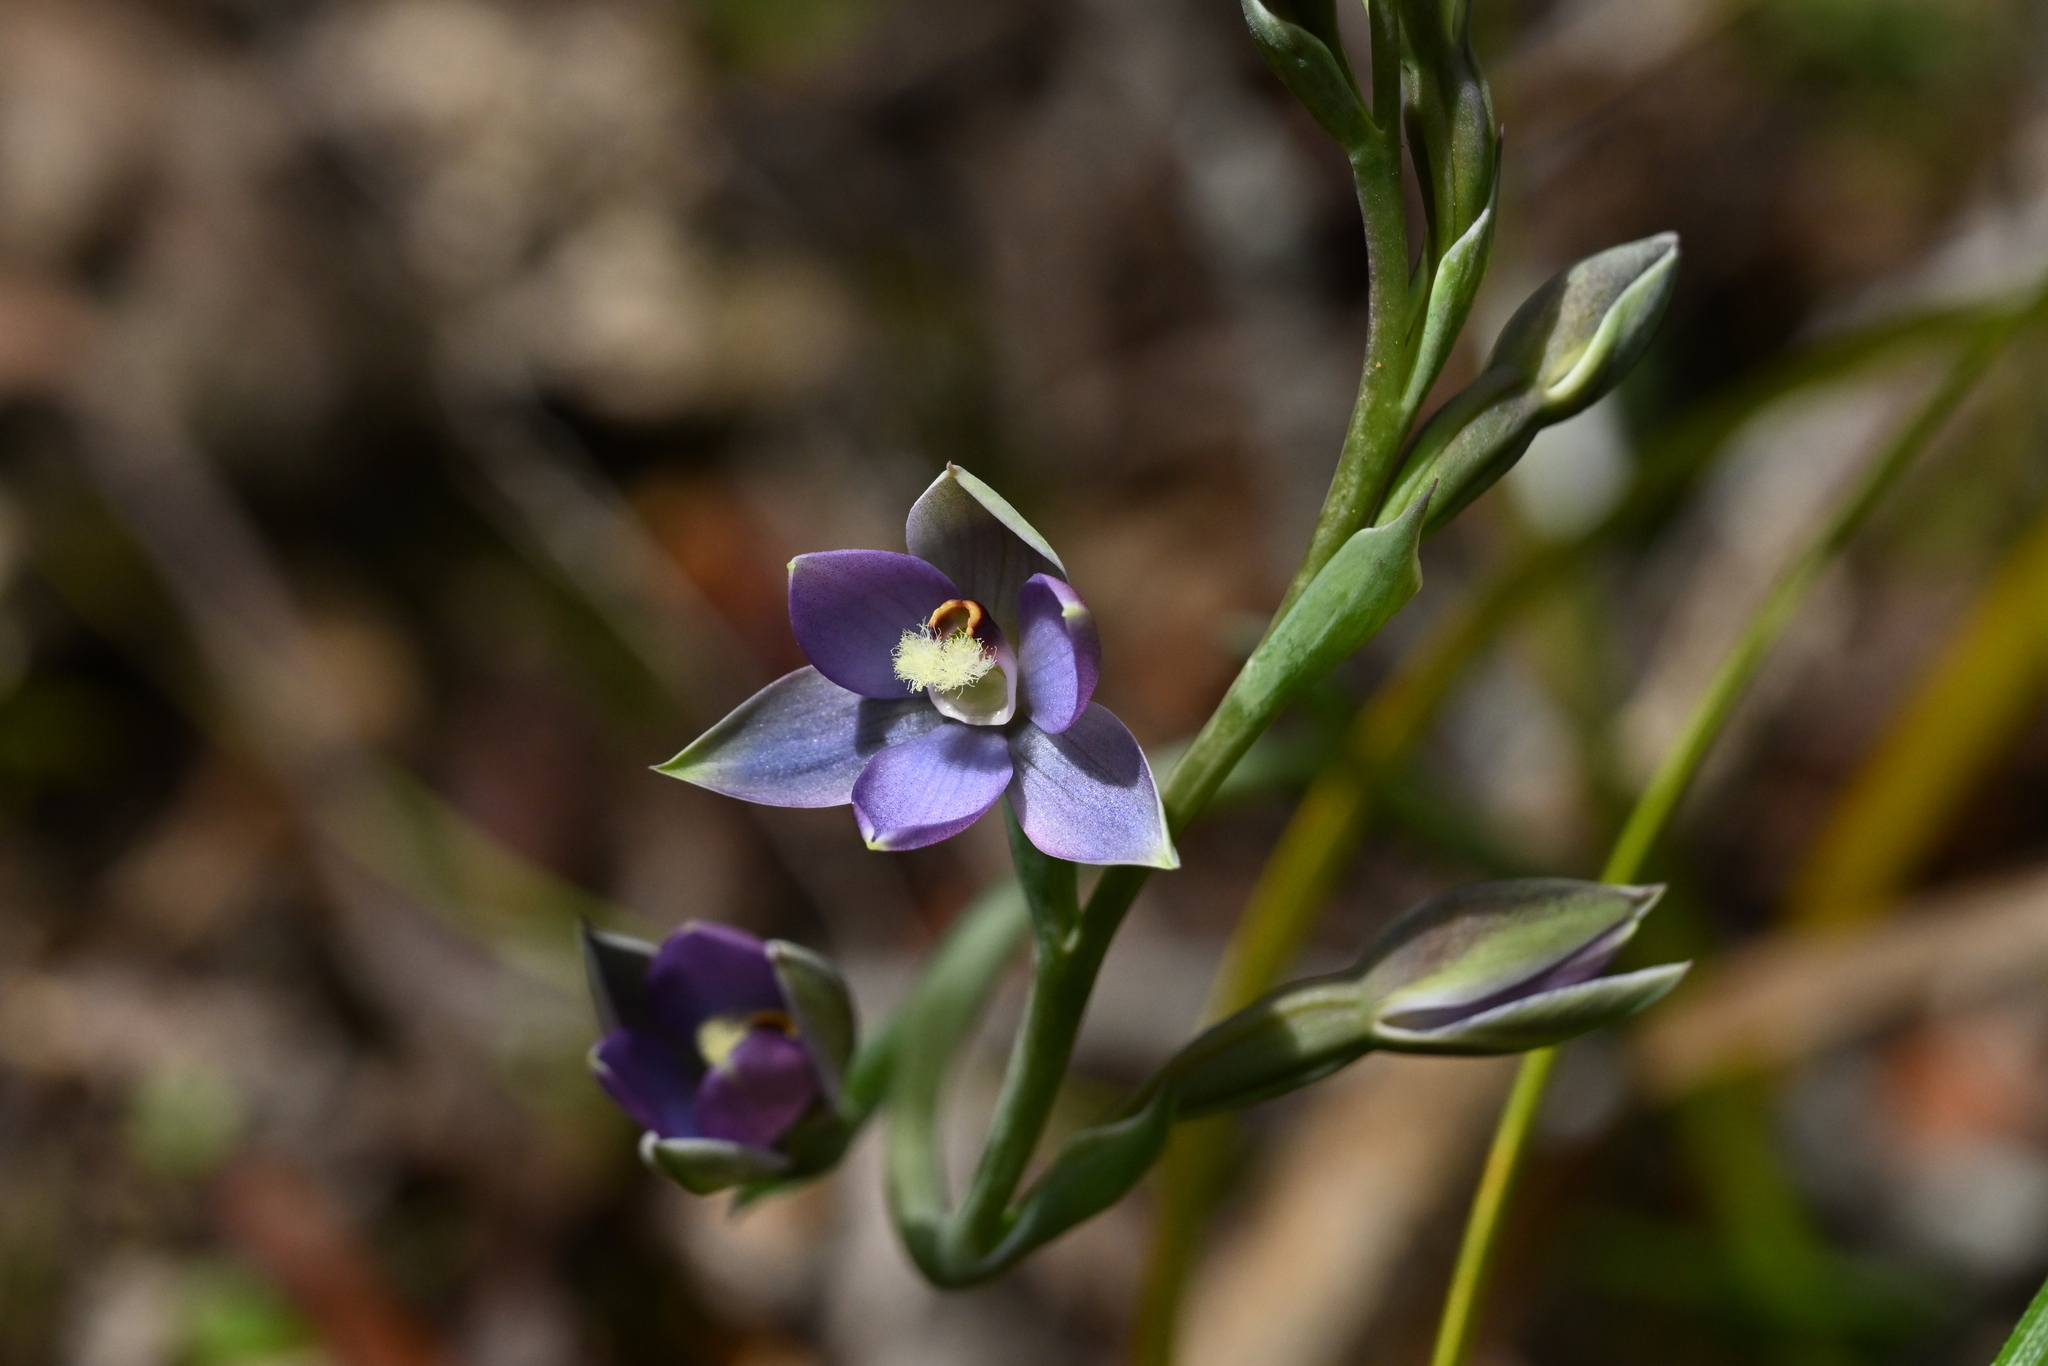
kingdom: Plantae
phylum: Tracheophyta
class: Liliopsida
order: Asparagales
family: Orchidaceae
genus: Thelymitra
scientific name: Thelymitra hatchii
